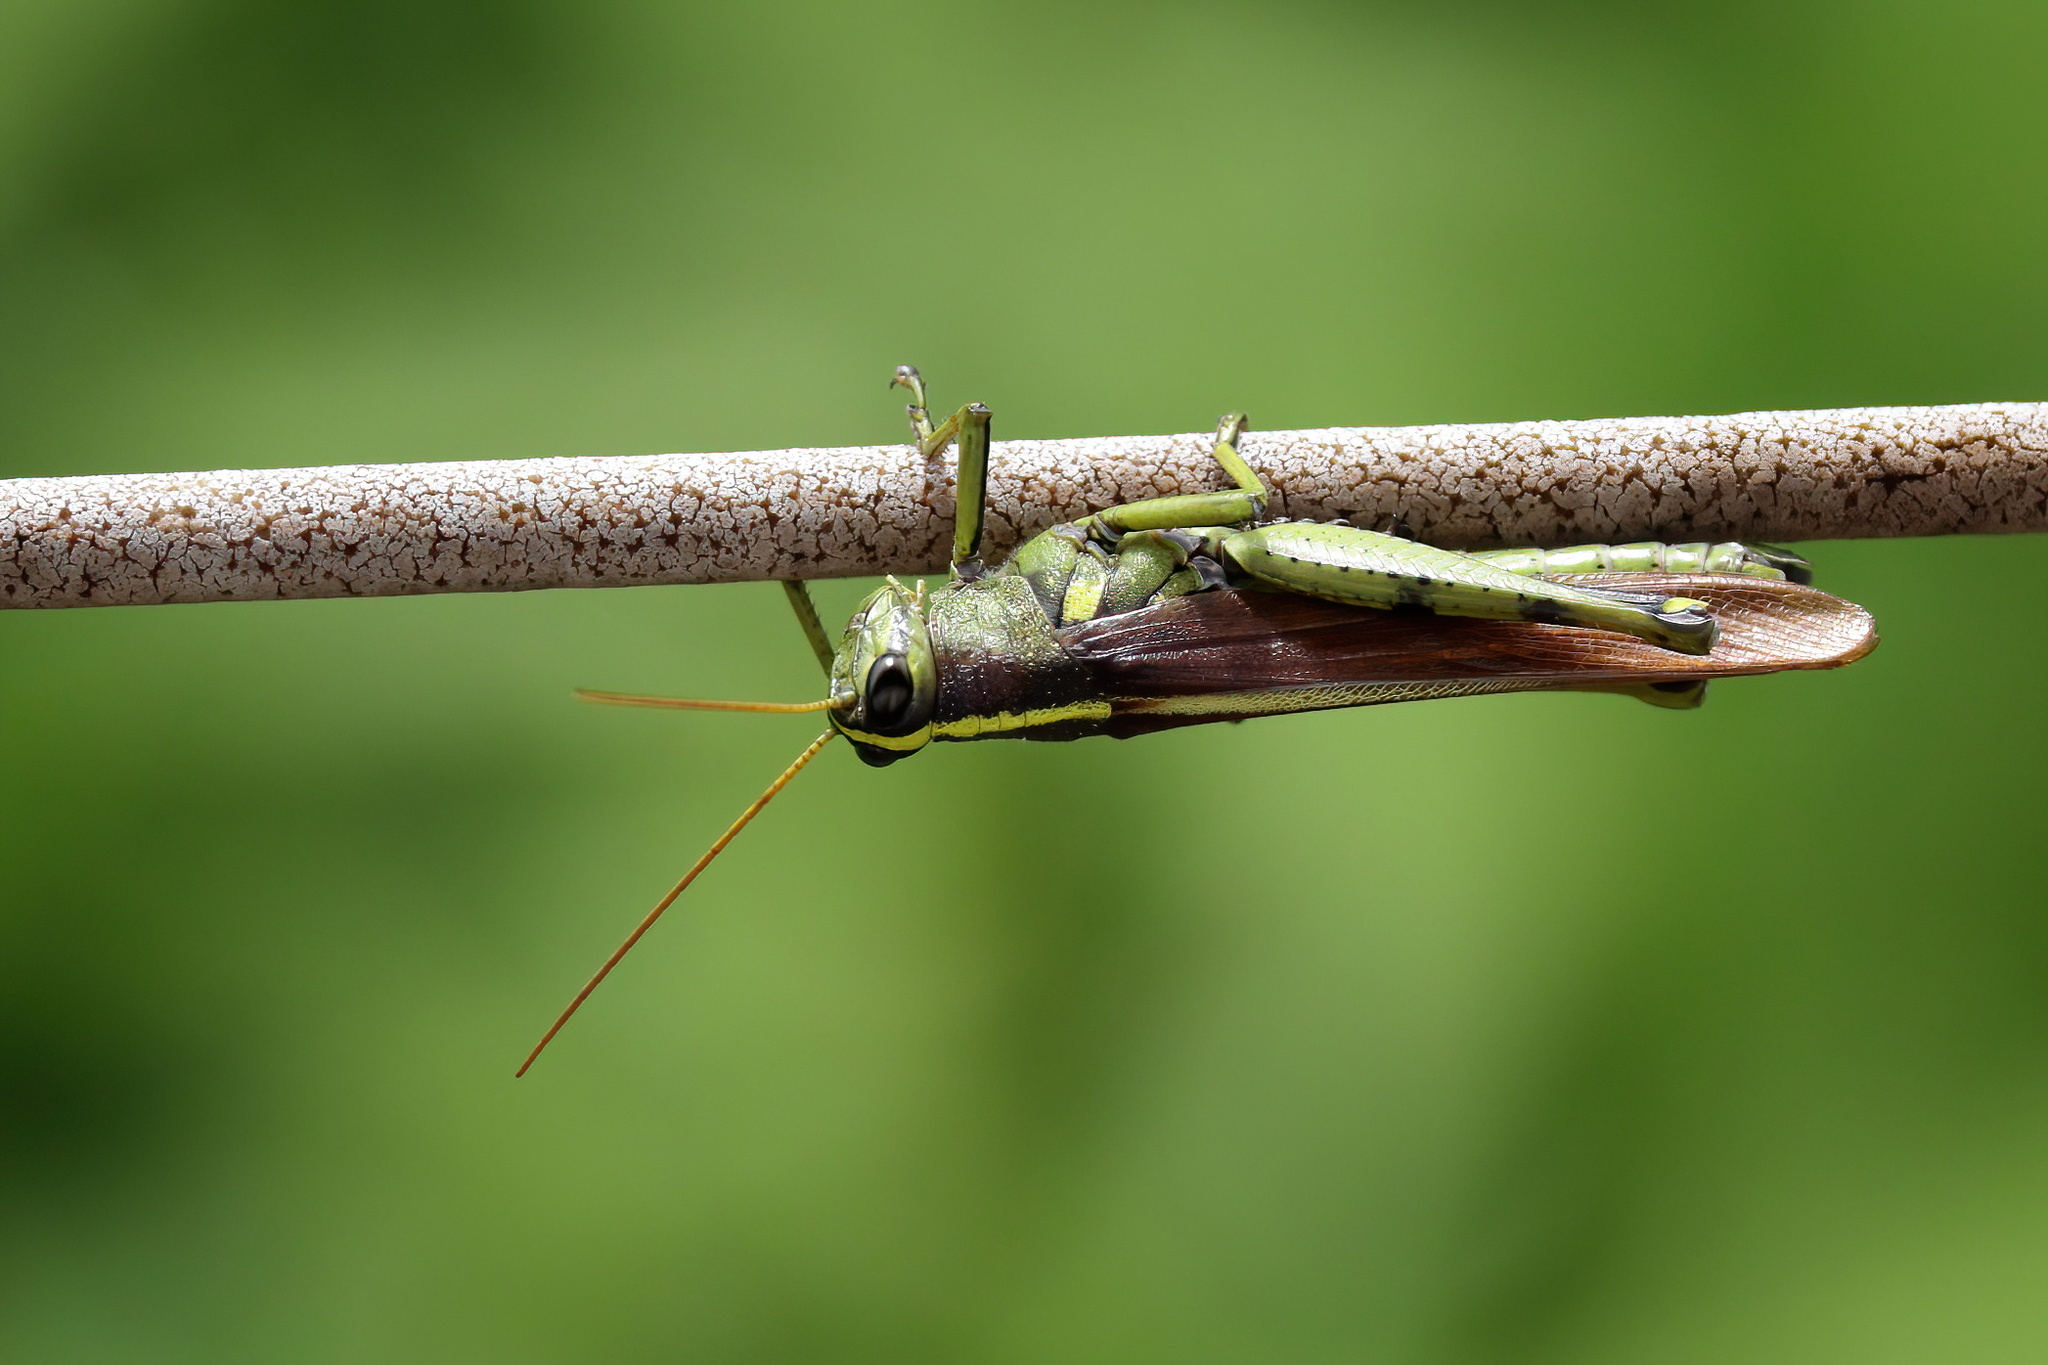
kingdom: Animalia
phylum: Arthropoda
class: Insecta
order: Orthoptera
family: Acrididae
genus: Schistocerca
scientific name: Schistocerca obscura
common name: Obscure bird grasshopper
